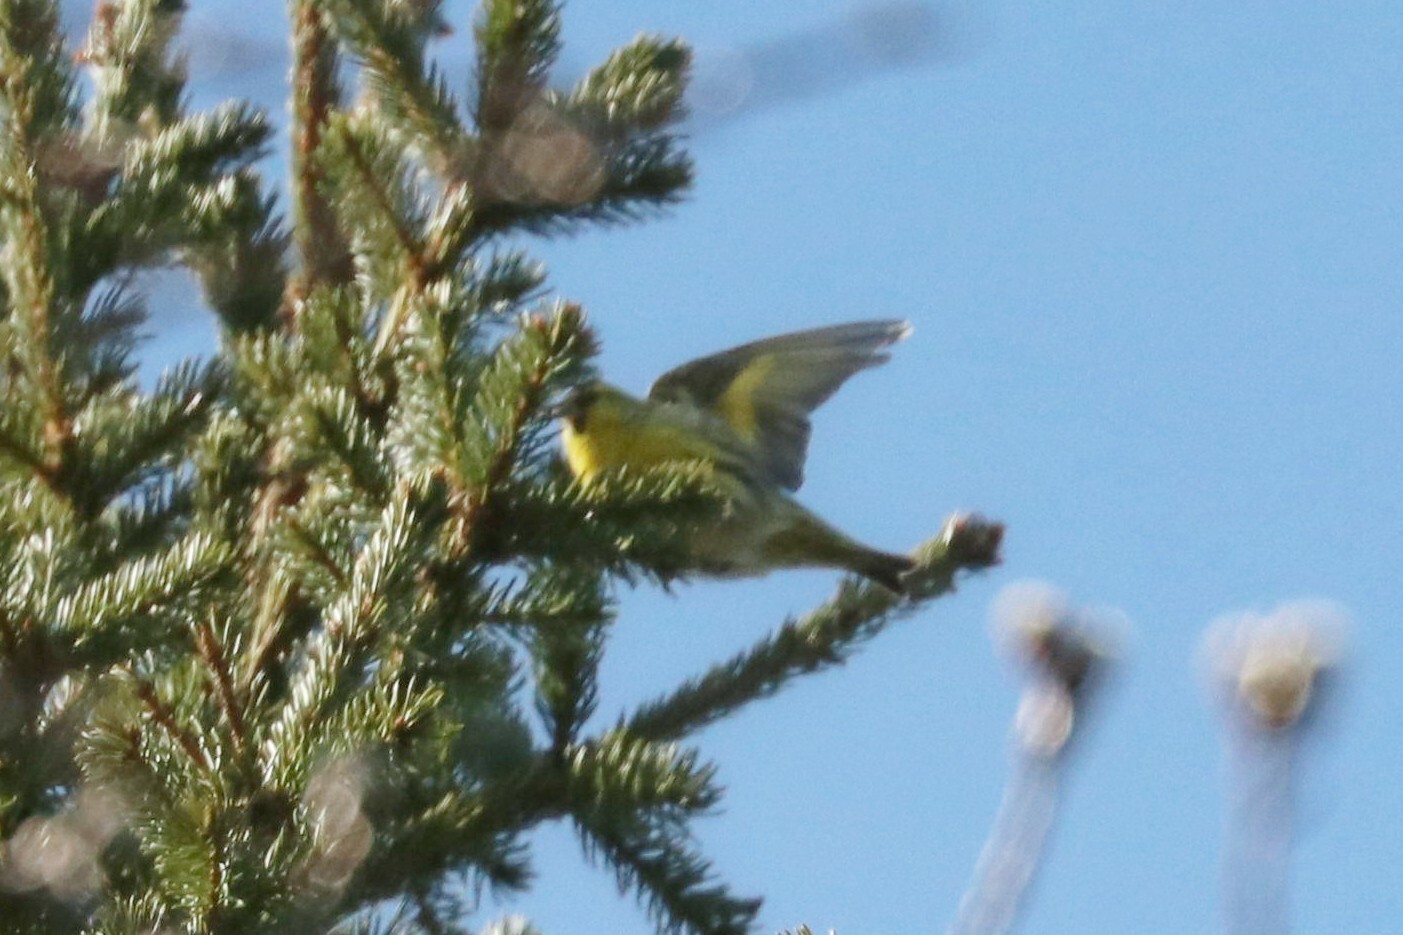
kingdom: Animalia
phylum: Chordata
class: Aves
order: Passeriformes
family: Fringillidae
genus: Spinus
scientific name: Spinus spinus
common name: Eurasian siskin
